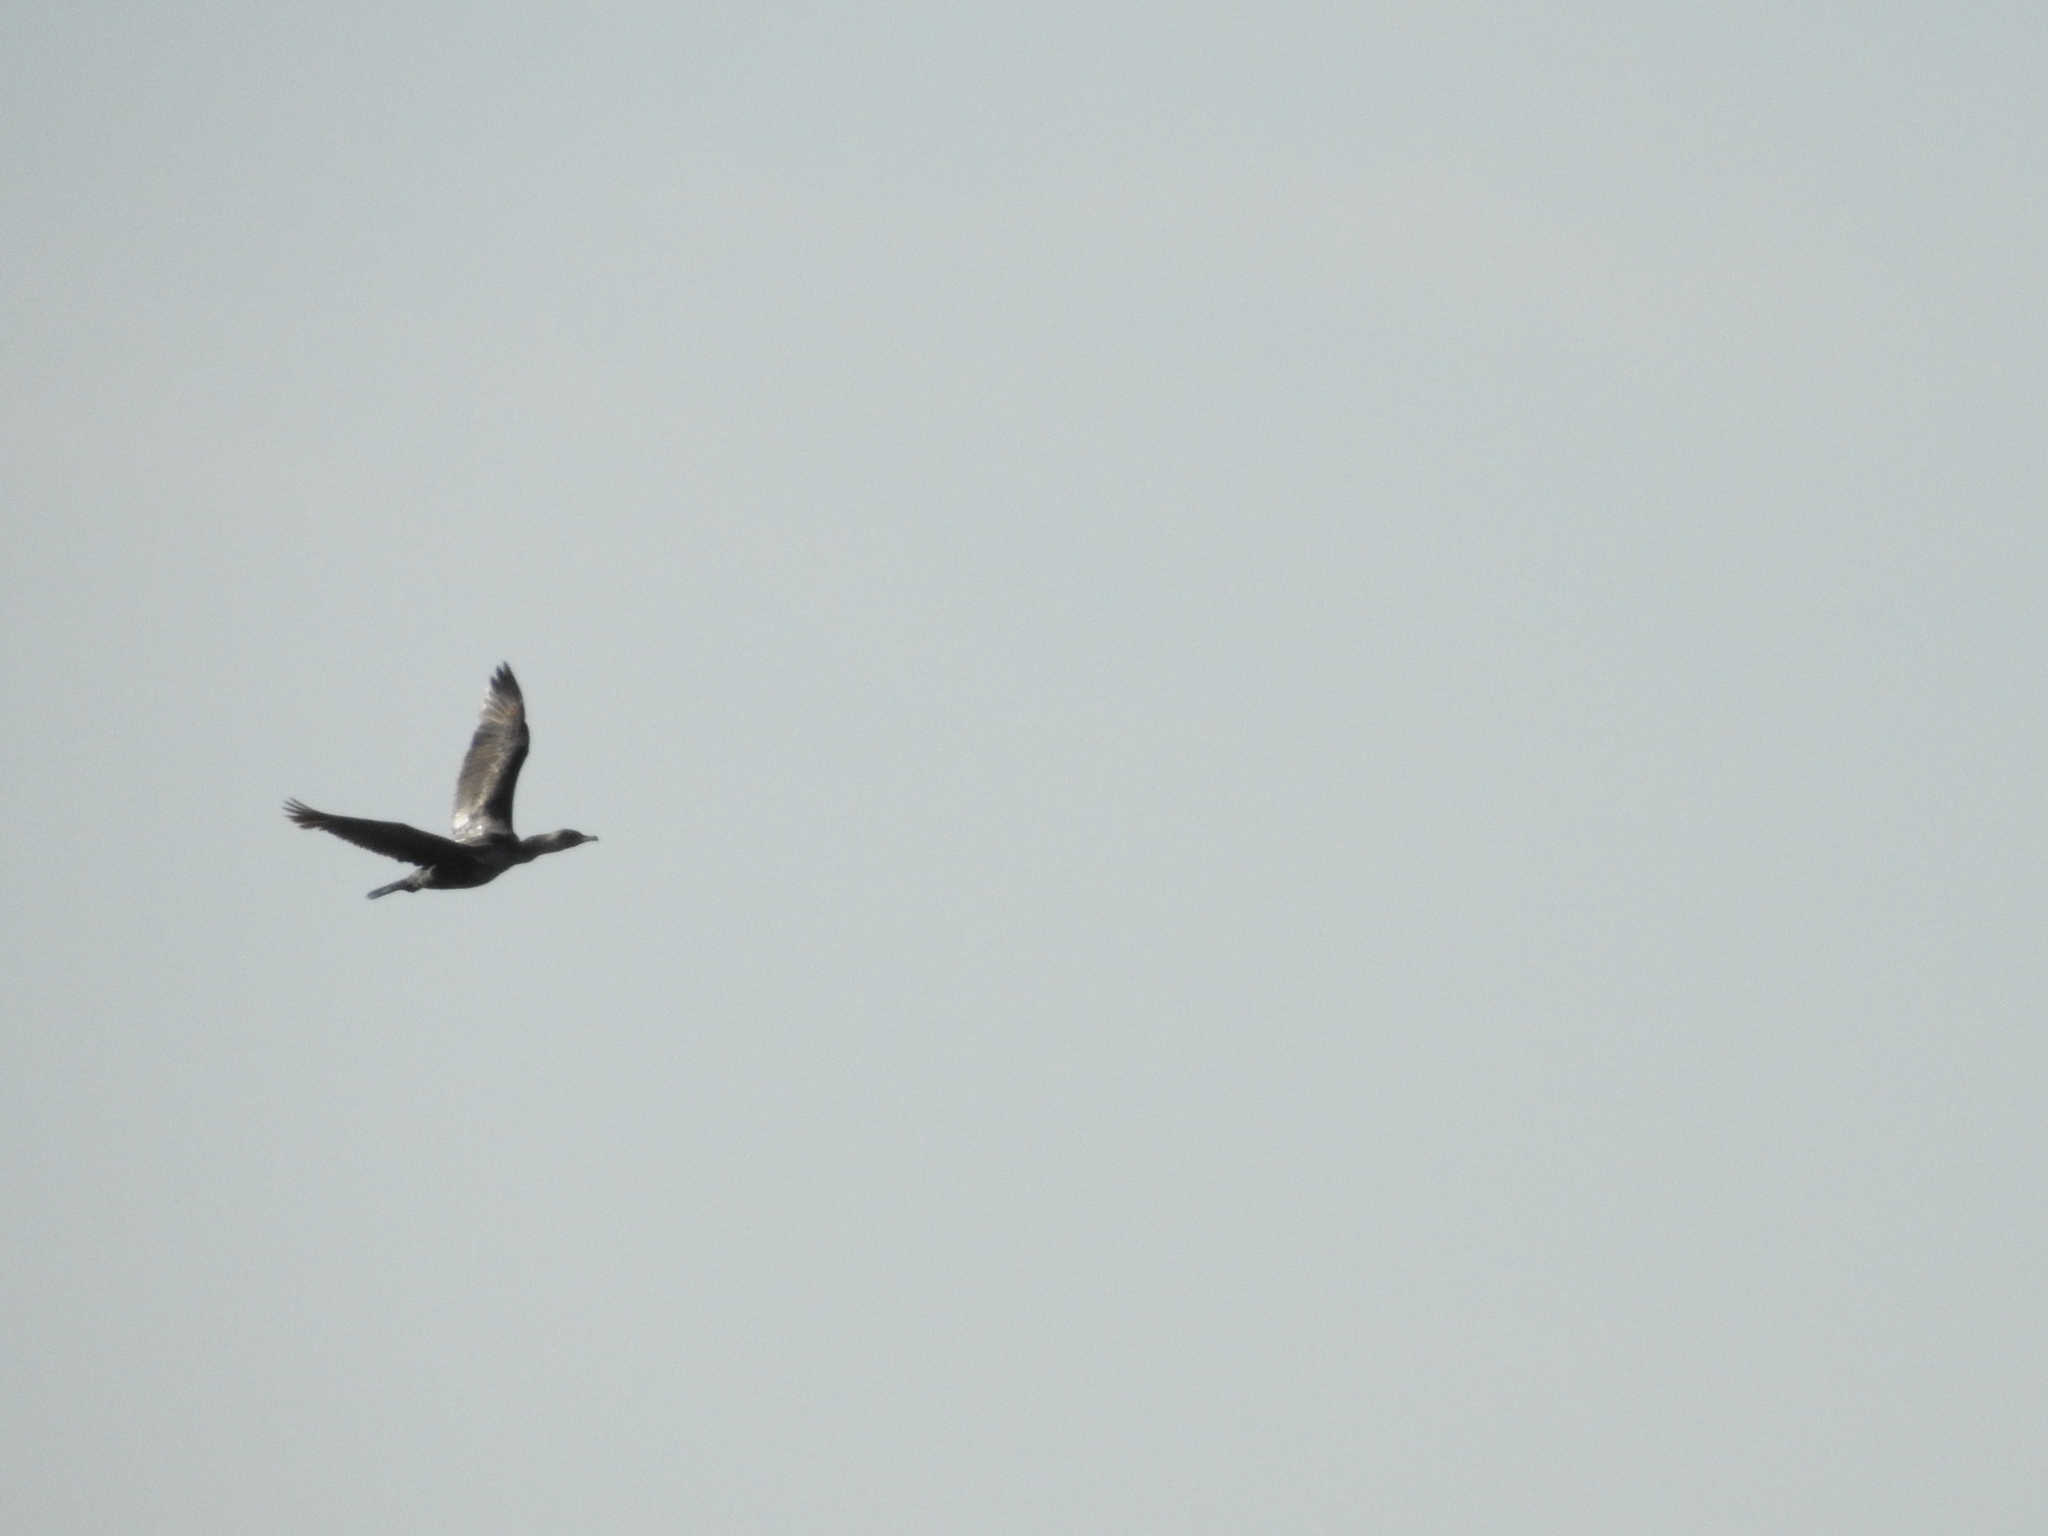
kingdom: Animalia
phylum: Chordata
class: Aves
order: Suliformes
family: Phalacrocoracidae
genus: Phalacrocorax
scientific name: Phalacrocorax auritus
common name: Double-crested cormorant
